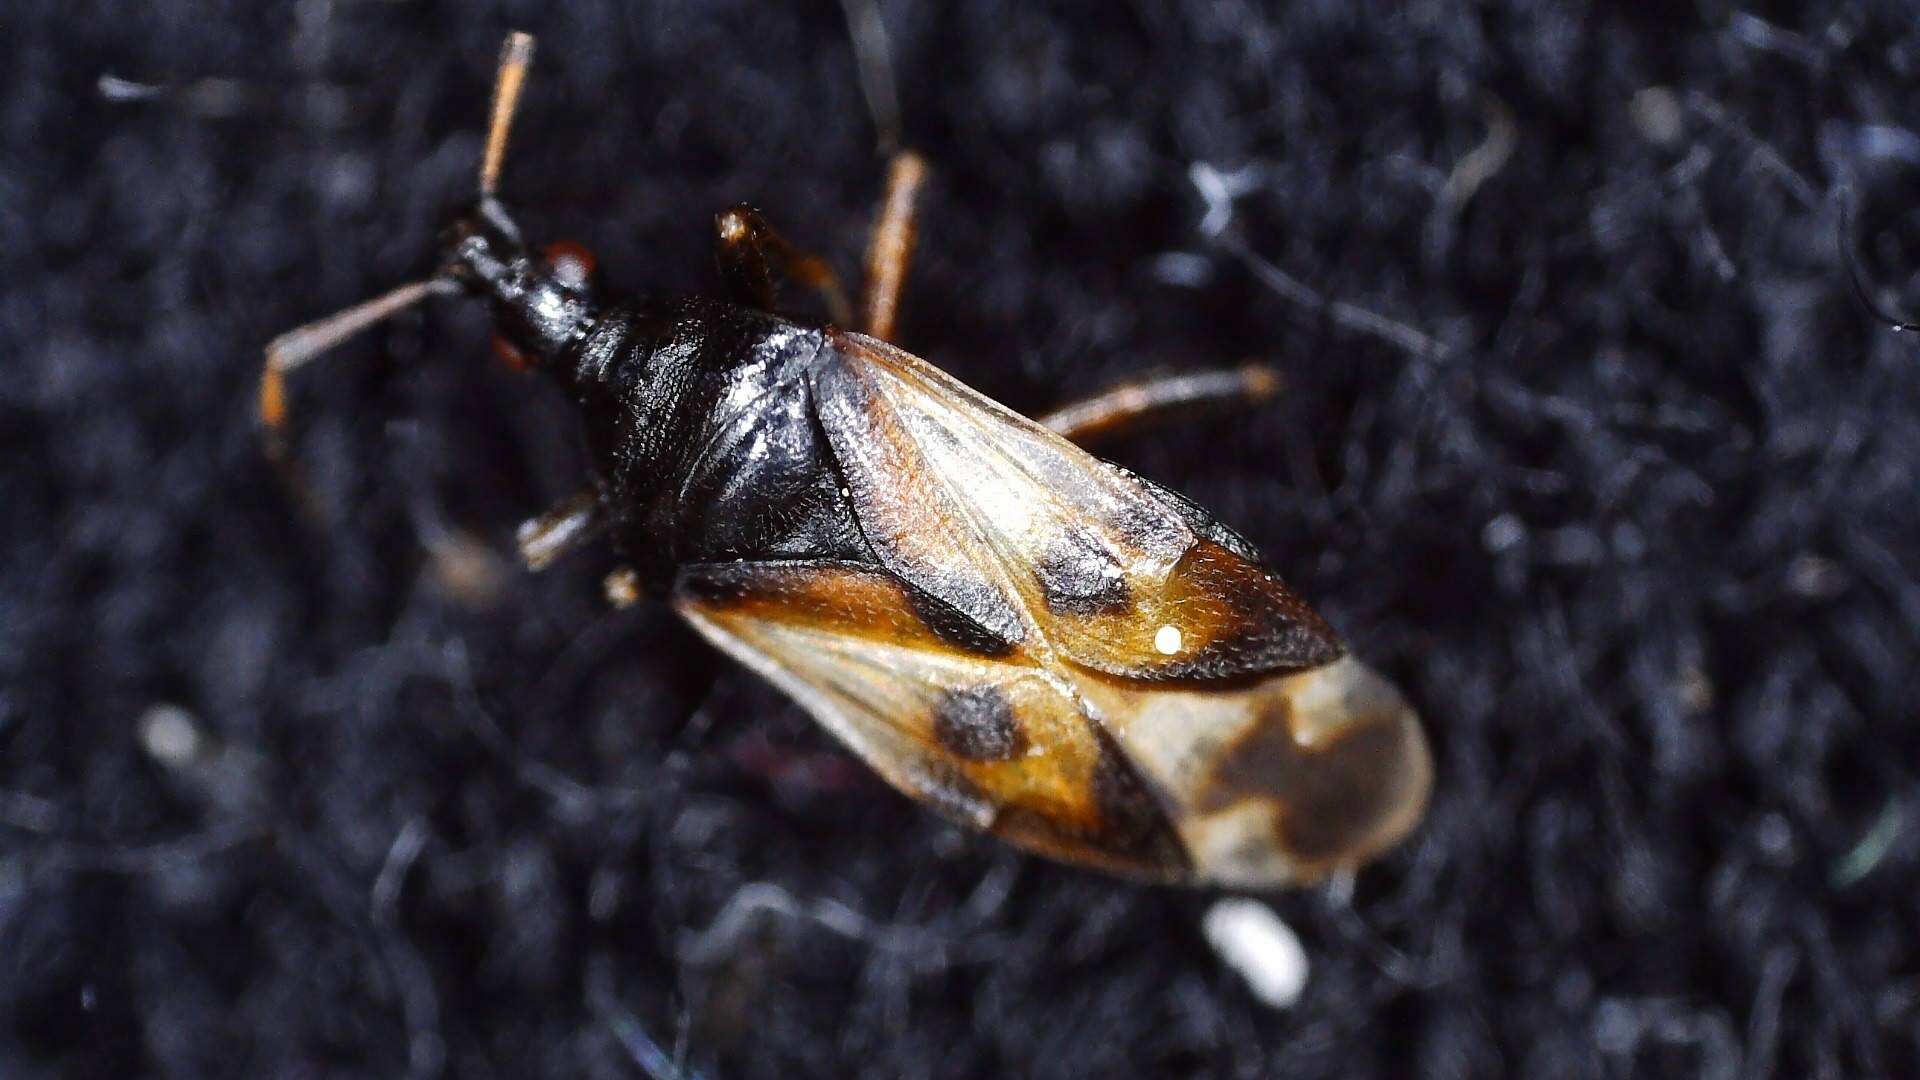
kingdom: Animalia
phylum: Arthropoda
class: Insecta
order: Hemiptera
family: Anthocoridae
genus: Anthocoris
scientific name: Anthocoris nemorum
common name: Minute pirate bug
